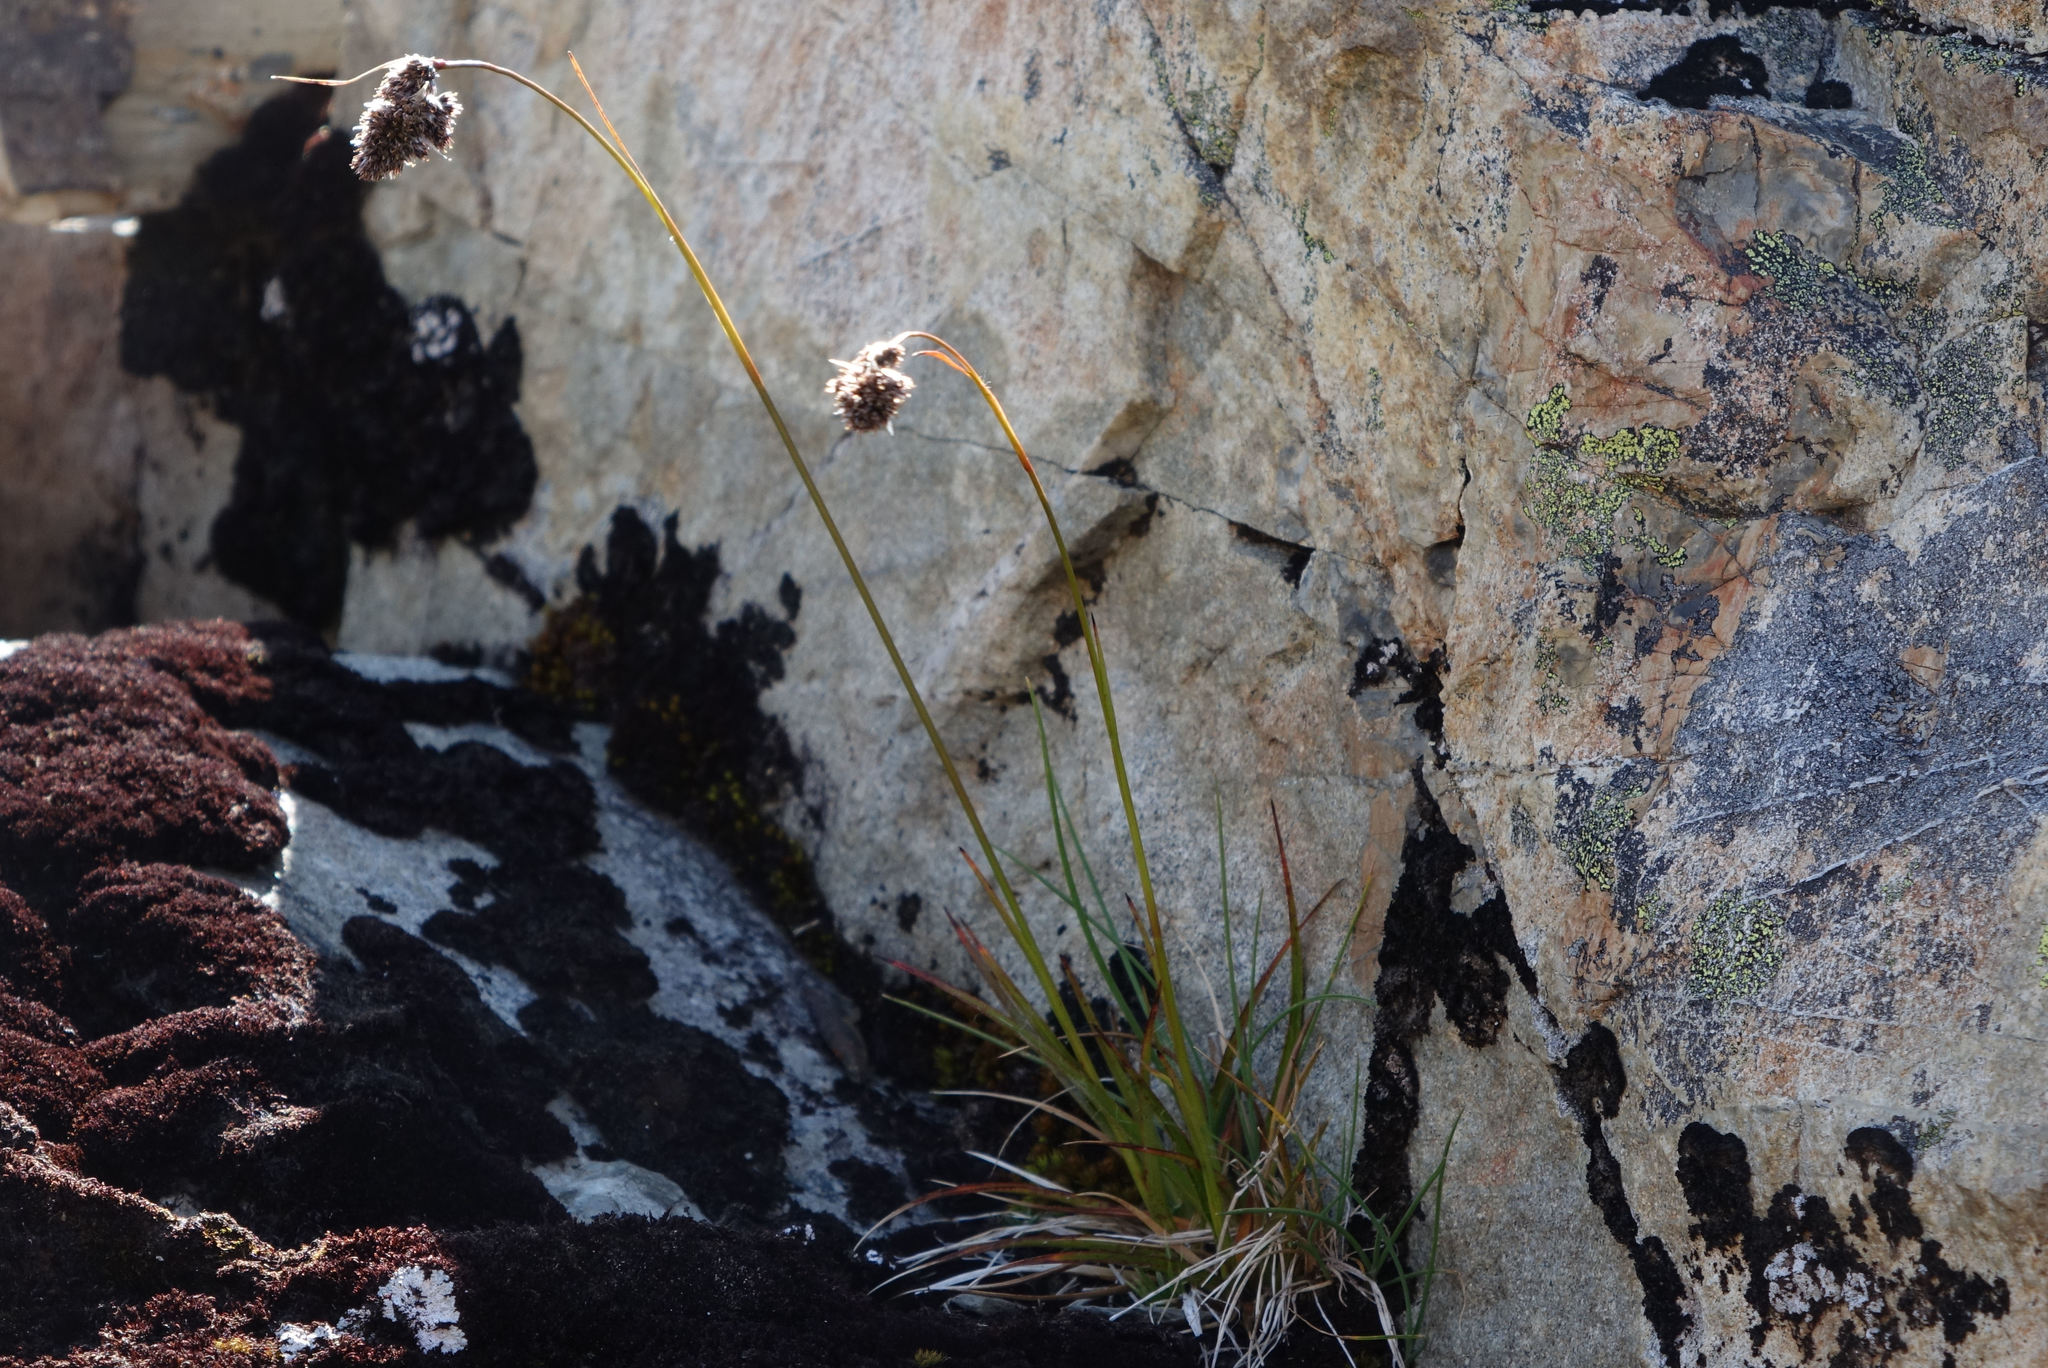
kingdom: Plantae
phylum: Tracheophyta
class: Liliopsida
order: Poales
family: Juncaceae
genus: Luzula
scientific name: Luzula traversii
